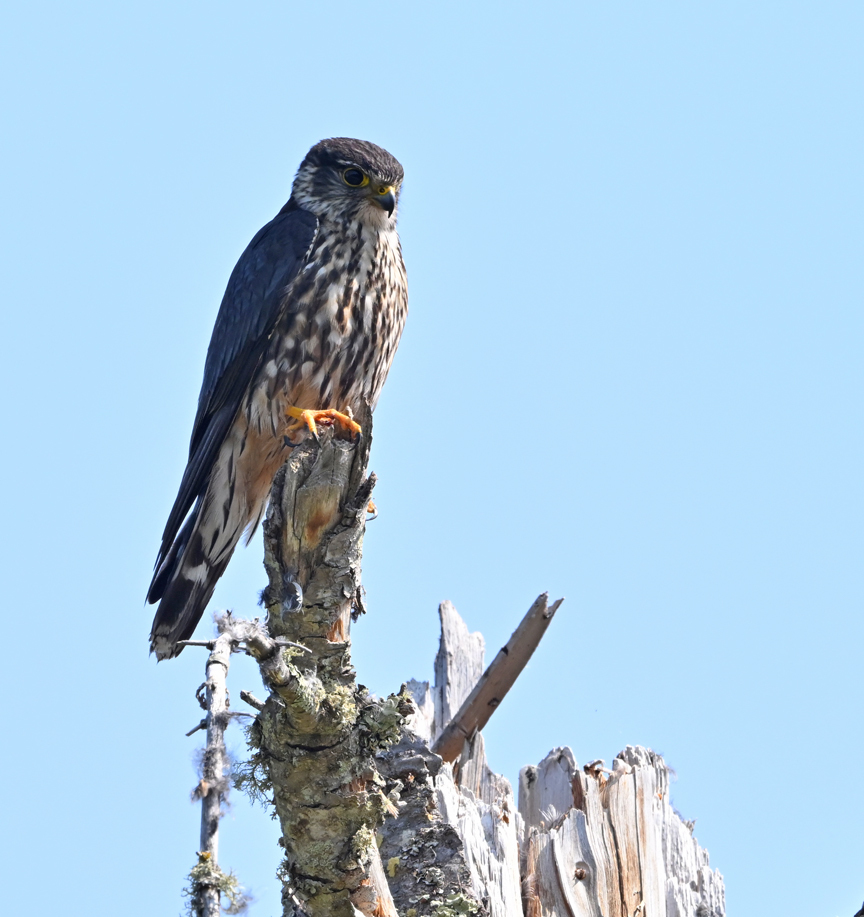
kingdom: Animalia
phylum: Chordata
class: Aves
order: Falconiformes
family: Falconidae
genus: Falco
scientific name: Falco columbarius
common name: Merlin
